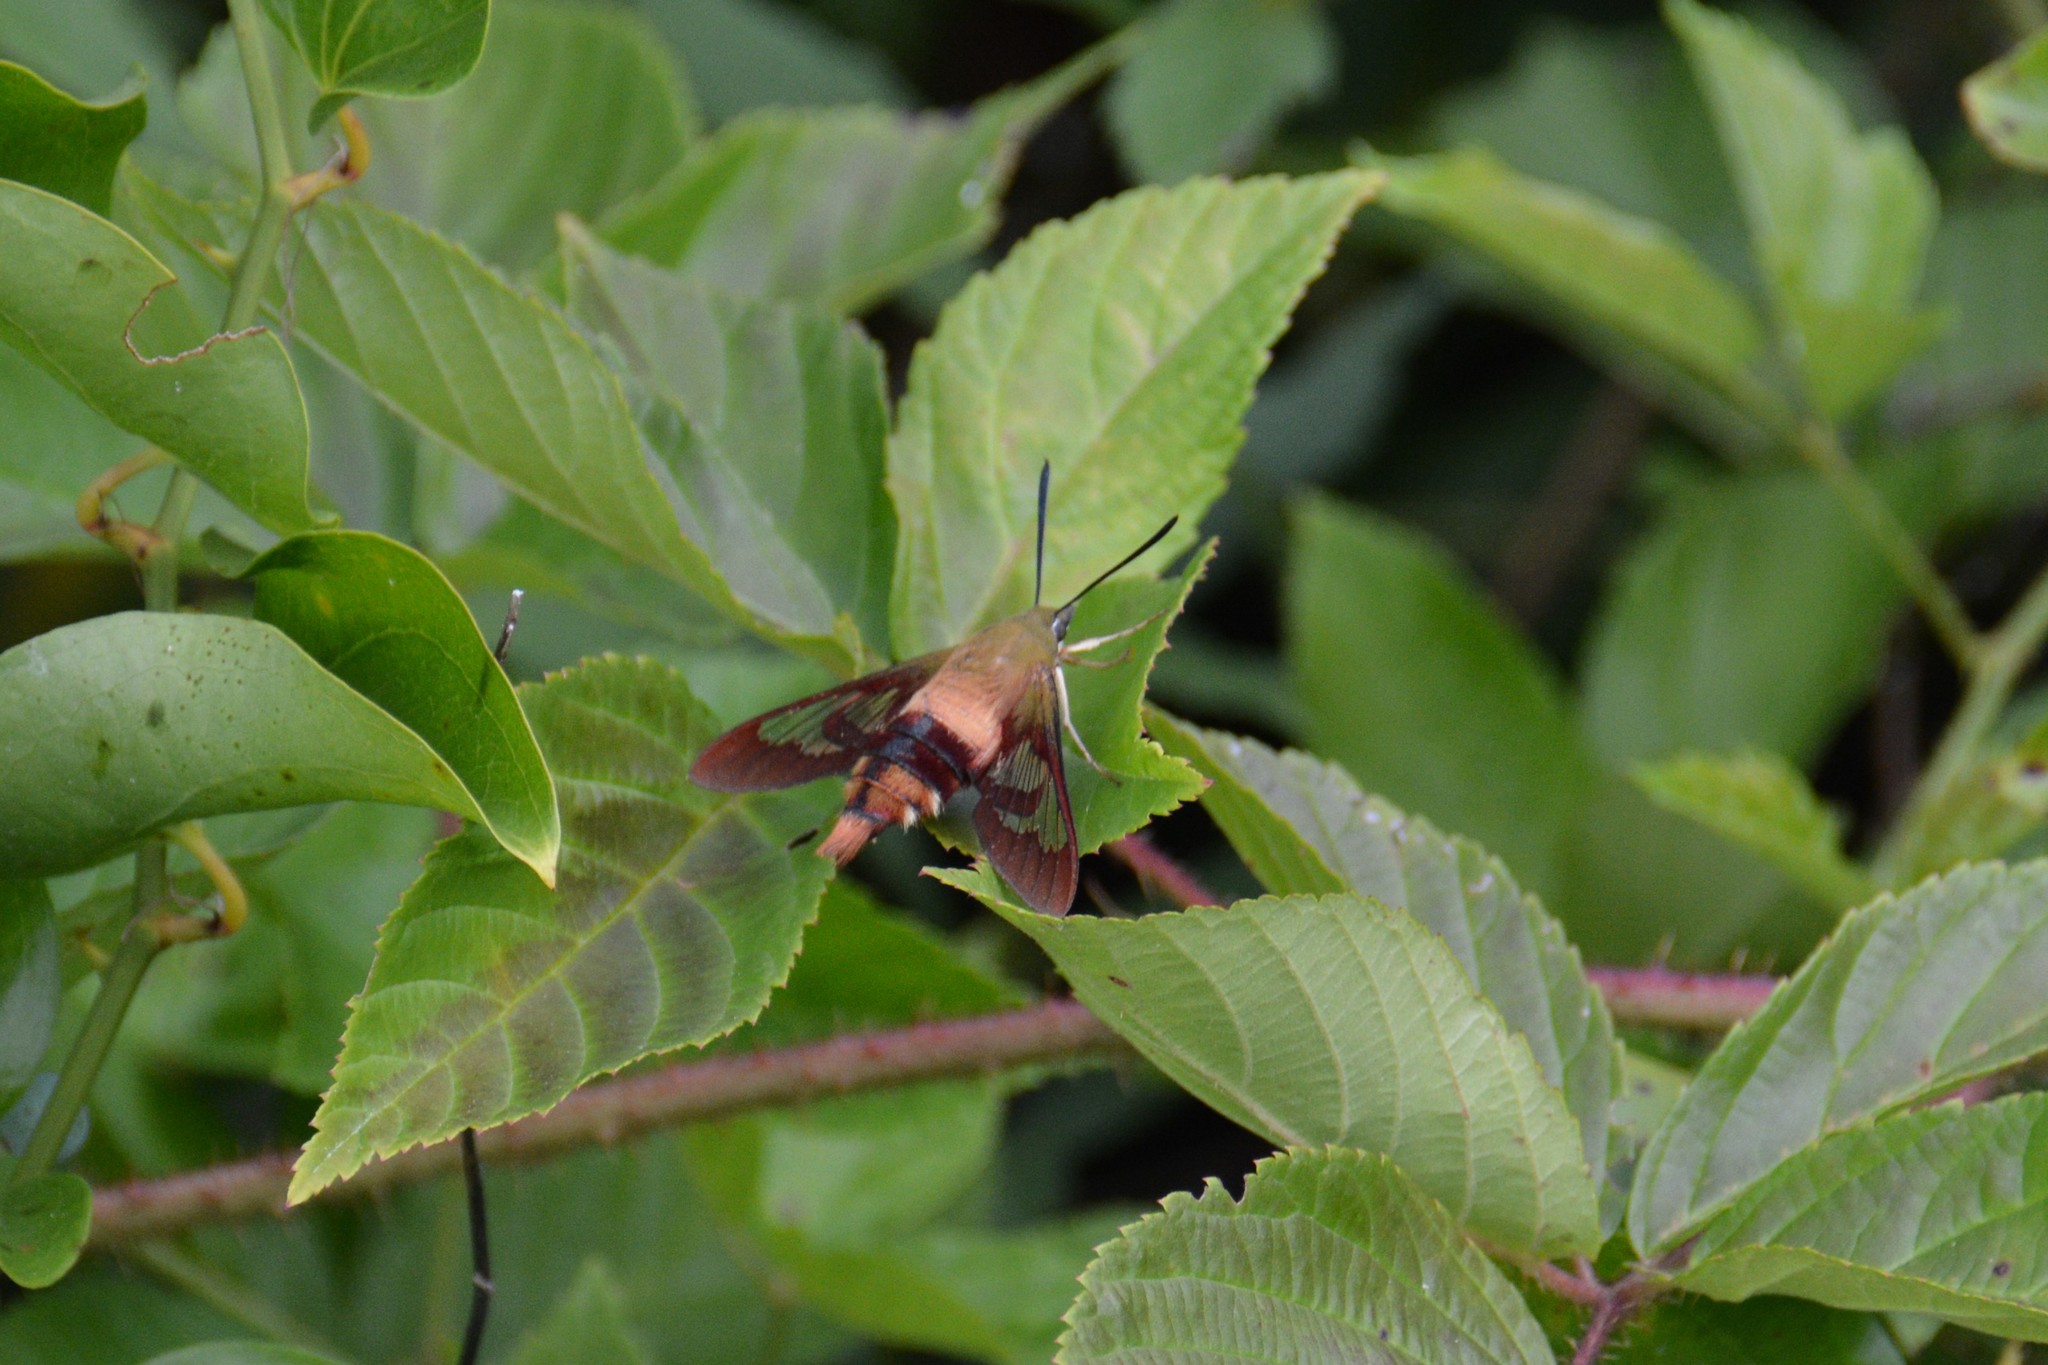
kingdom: Animalia
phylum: Arthropoda
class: Insecta
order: Lepidoptera
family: Sphingidae
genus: Hemaris
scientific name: Hemaris thysbe
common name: Common clear-wing
